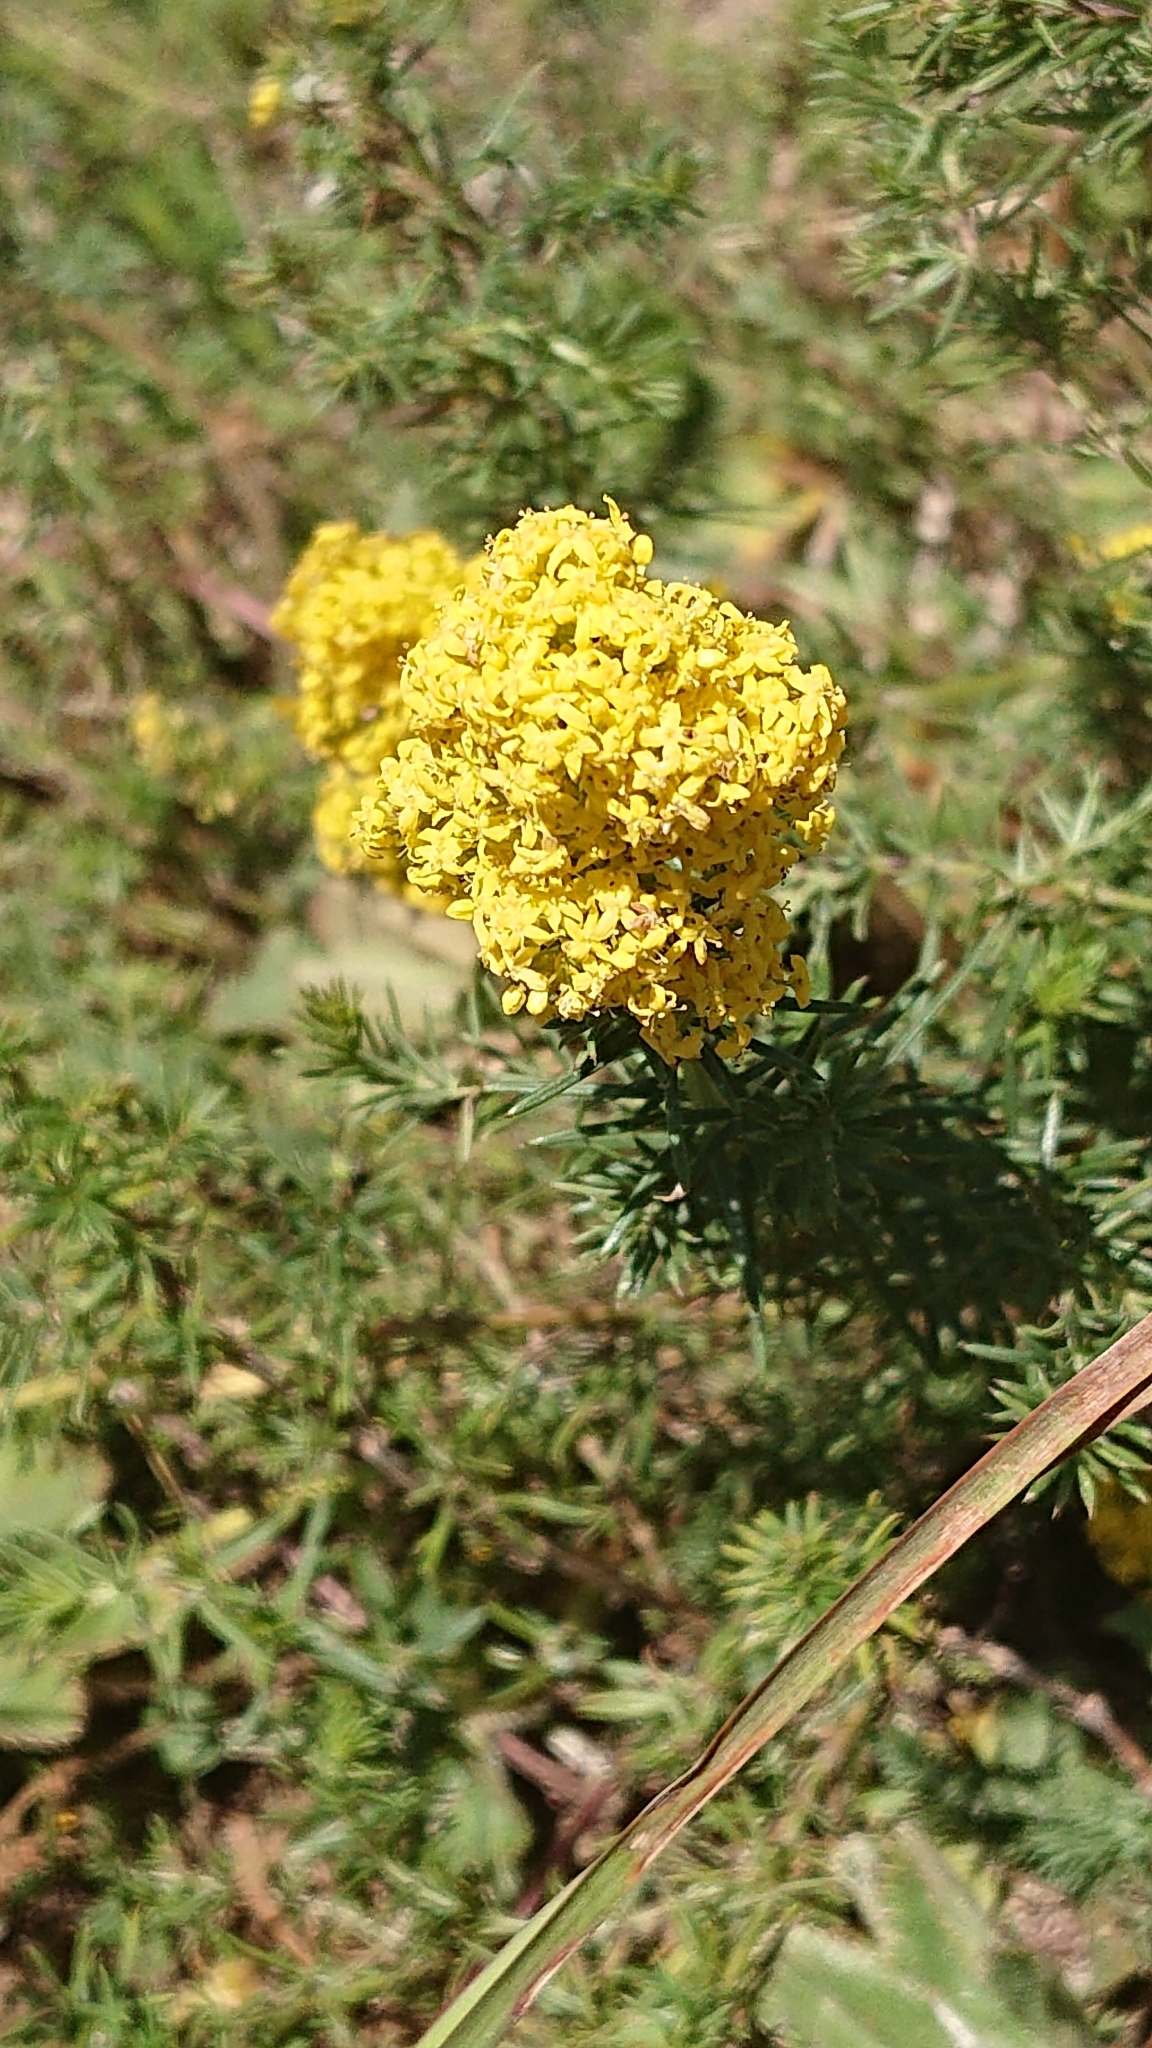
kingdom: Plantae
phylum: Tracheophyta
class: Magnoliopsida
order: Gentianales
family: Rubiaceae
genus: Galium
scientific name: Galium verum
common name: Lady's bedstraw
